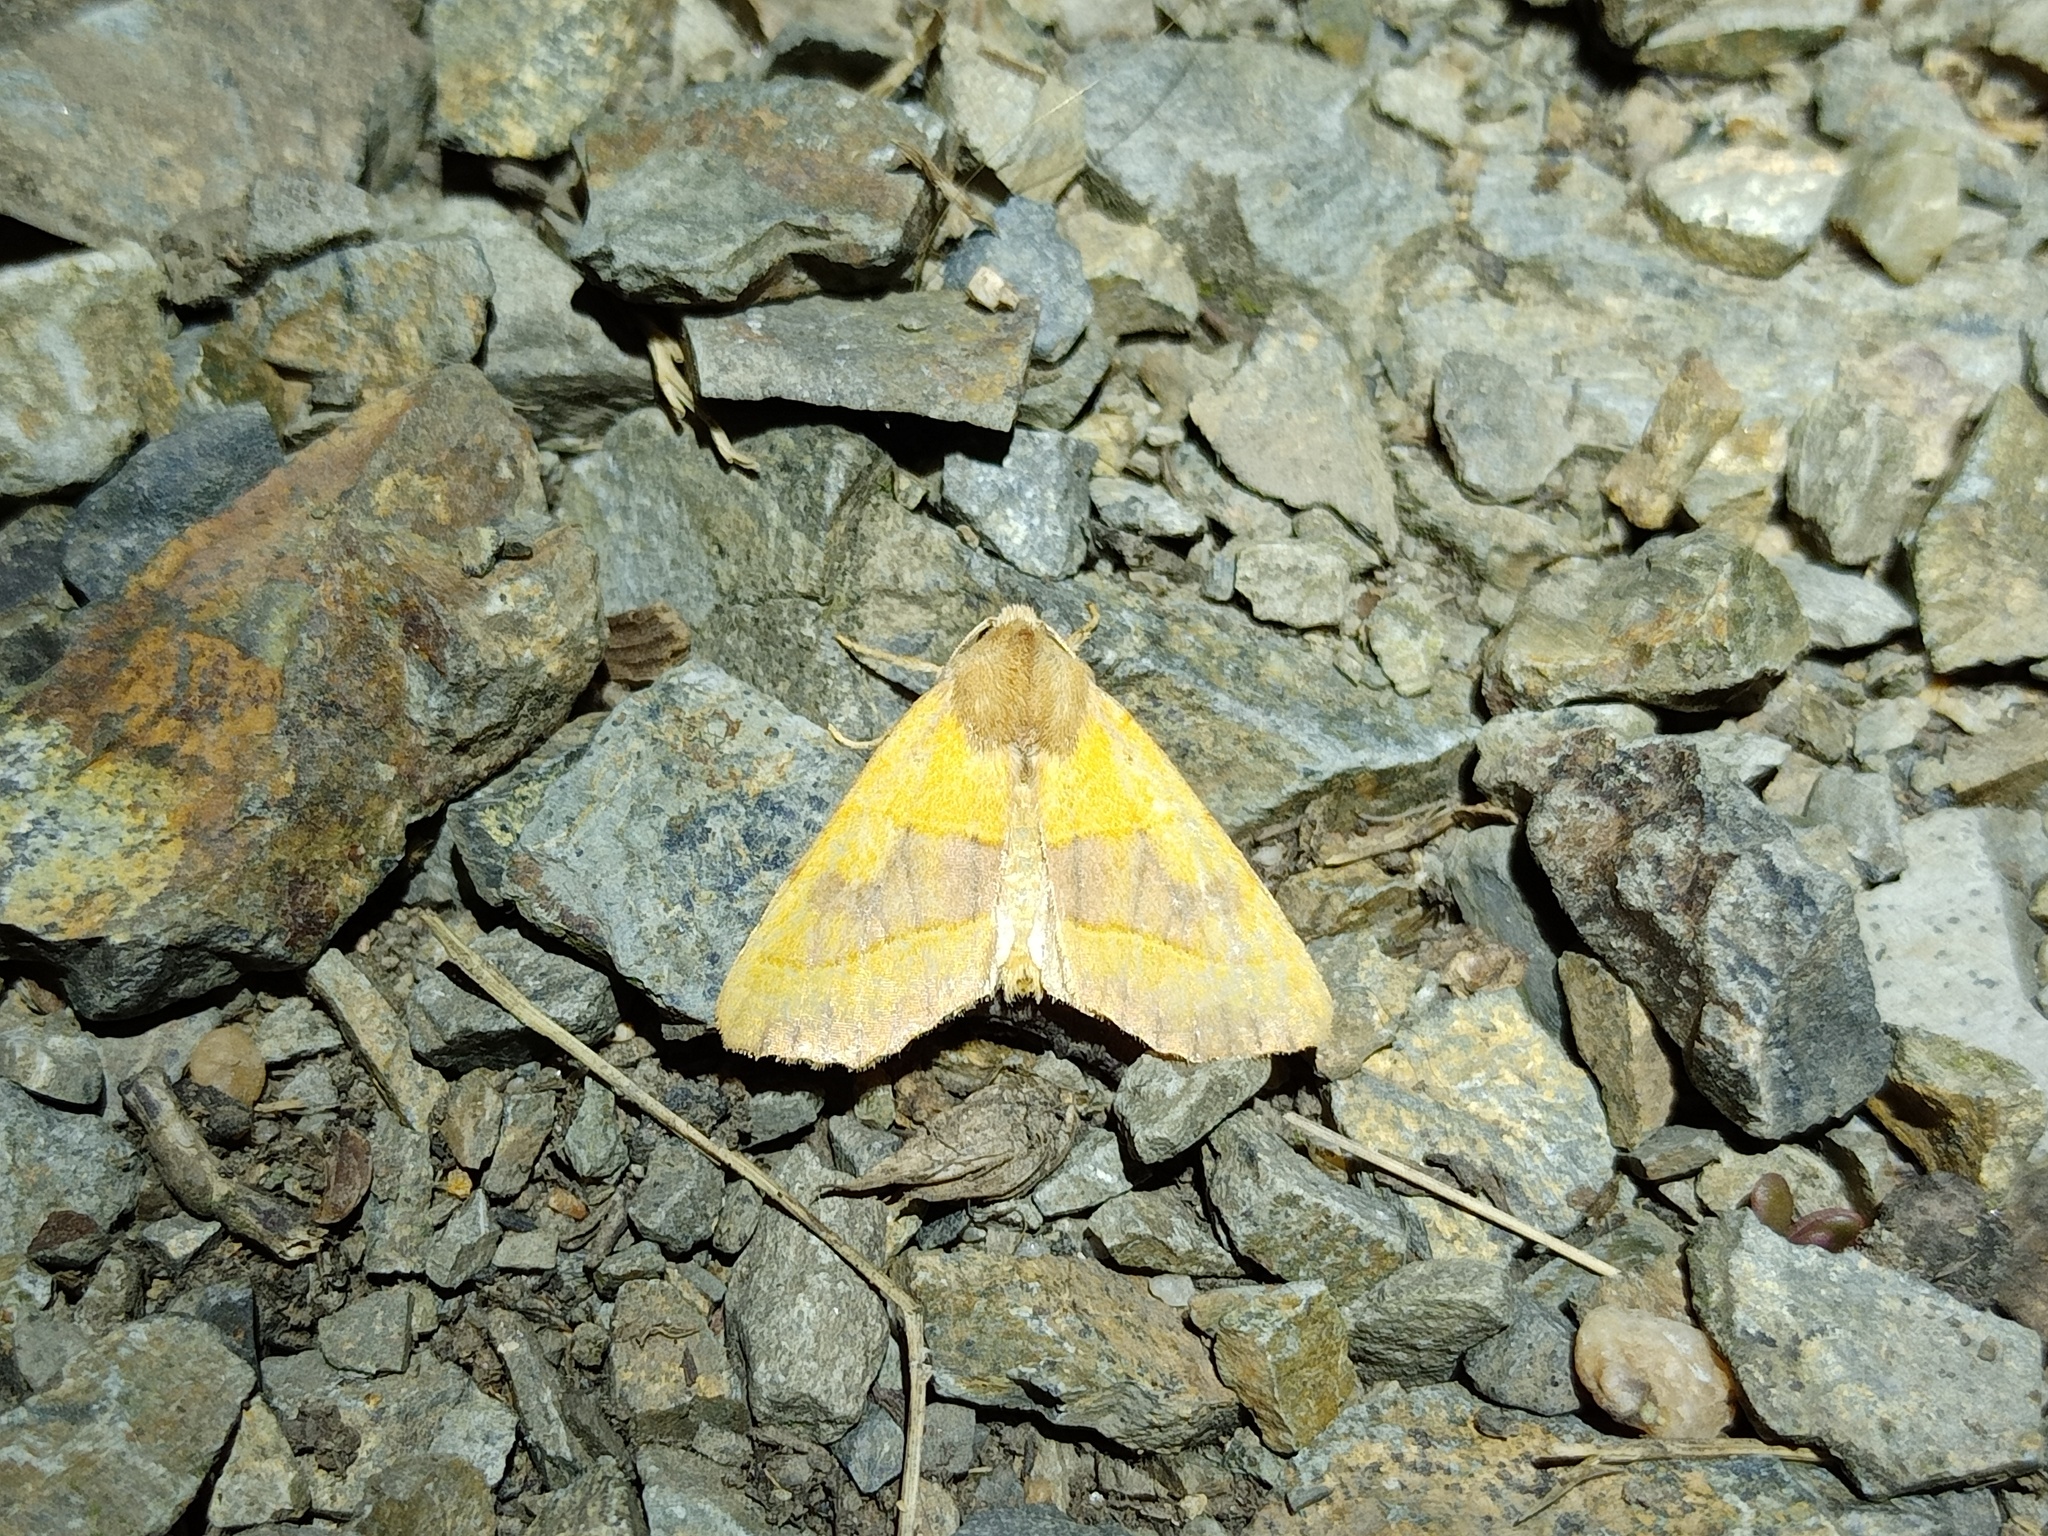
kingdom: Animalia
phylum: Arthropoda
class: Insecta
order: Lepidoptera
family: Noctuidae
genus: Atethmia
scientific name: Atethmia centrago
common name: Centre-barred sallow
